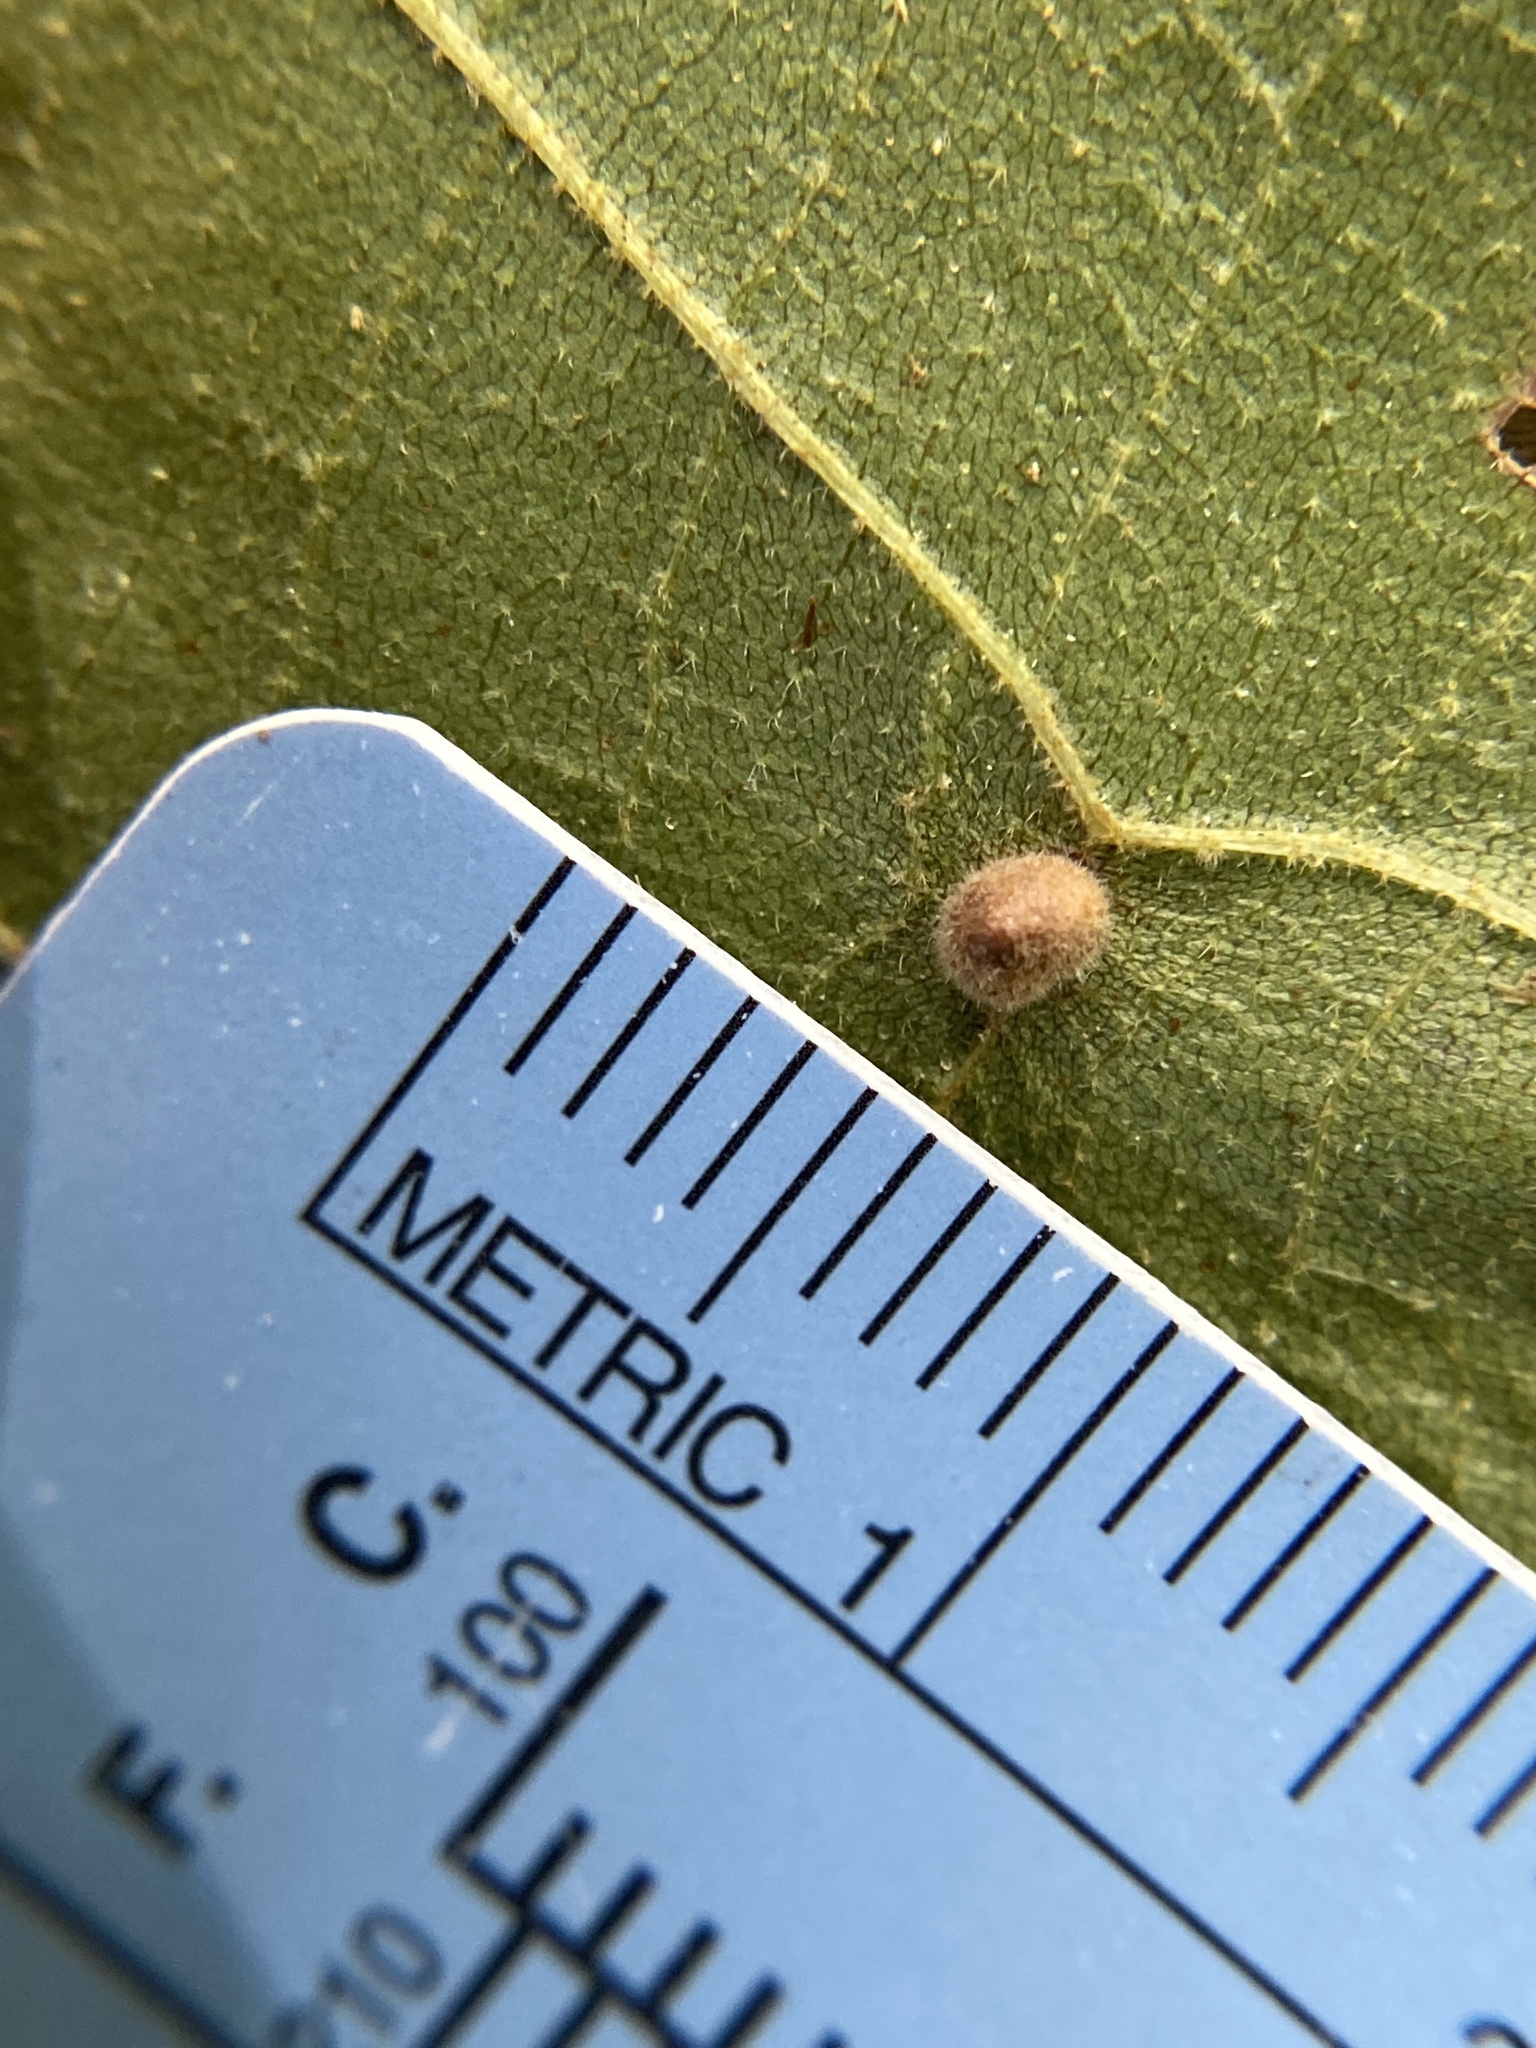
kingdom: Animalia
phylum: Arthropoda
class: Insecta
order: Diptera
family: Cecidomyiidae
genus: Caryomyia
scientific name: Caryomyia deflexipili
